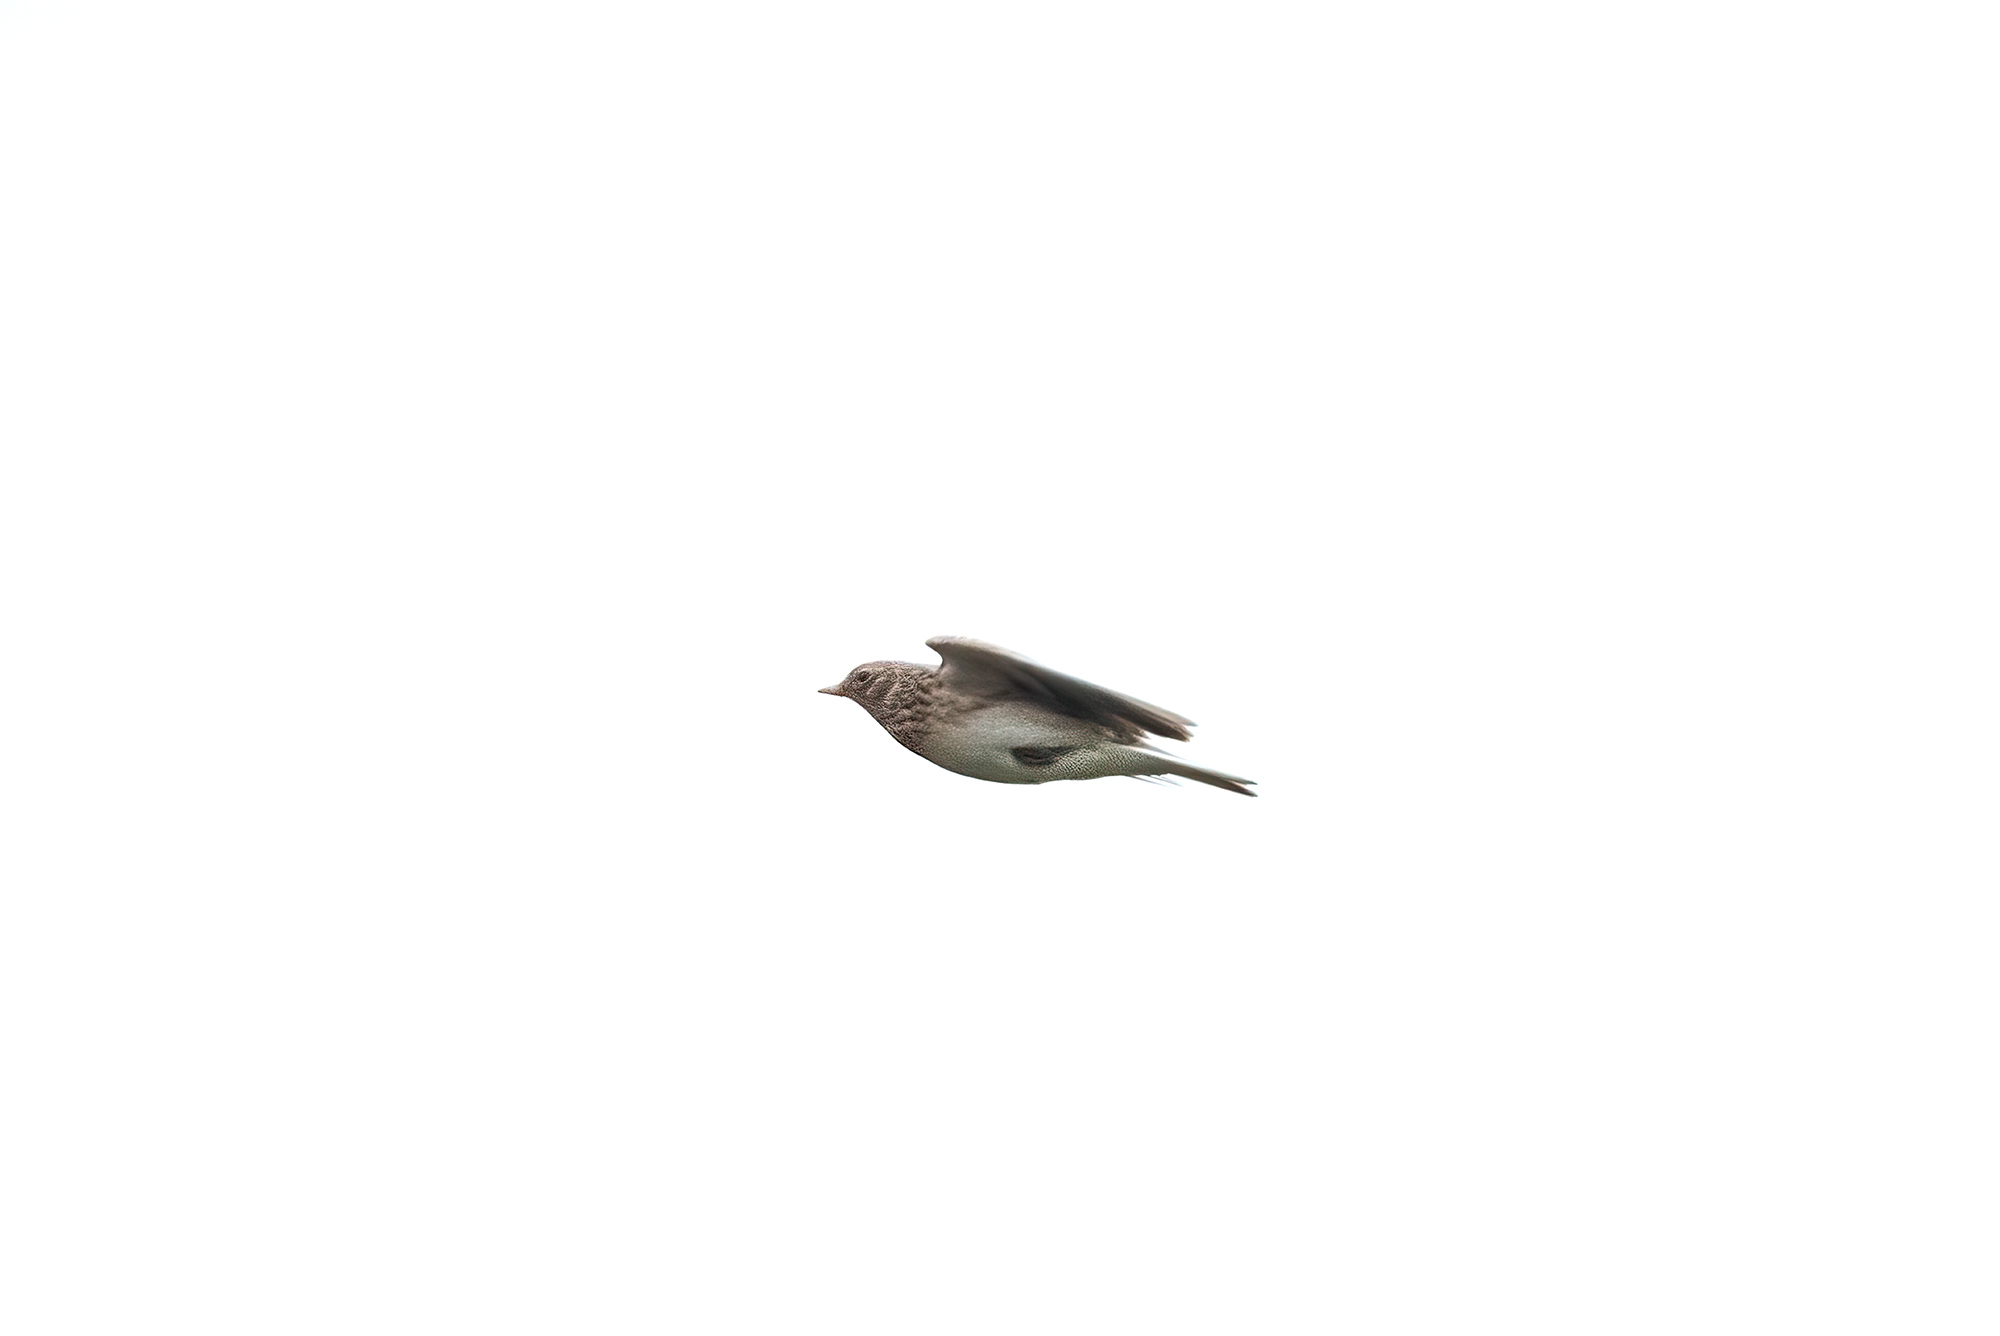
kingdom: Animalia
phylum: Chordata
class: Aves
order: Passeriformes
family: Alaudidae
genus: Alauda
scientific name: Alauda arvensis
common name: Eurasian skylark
